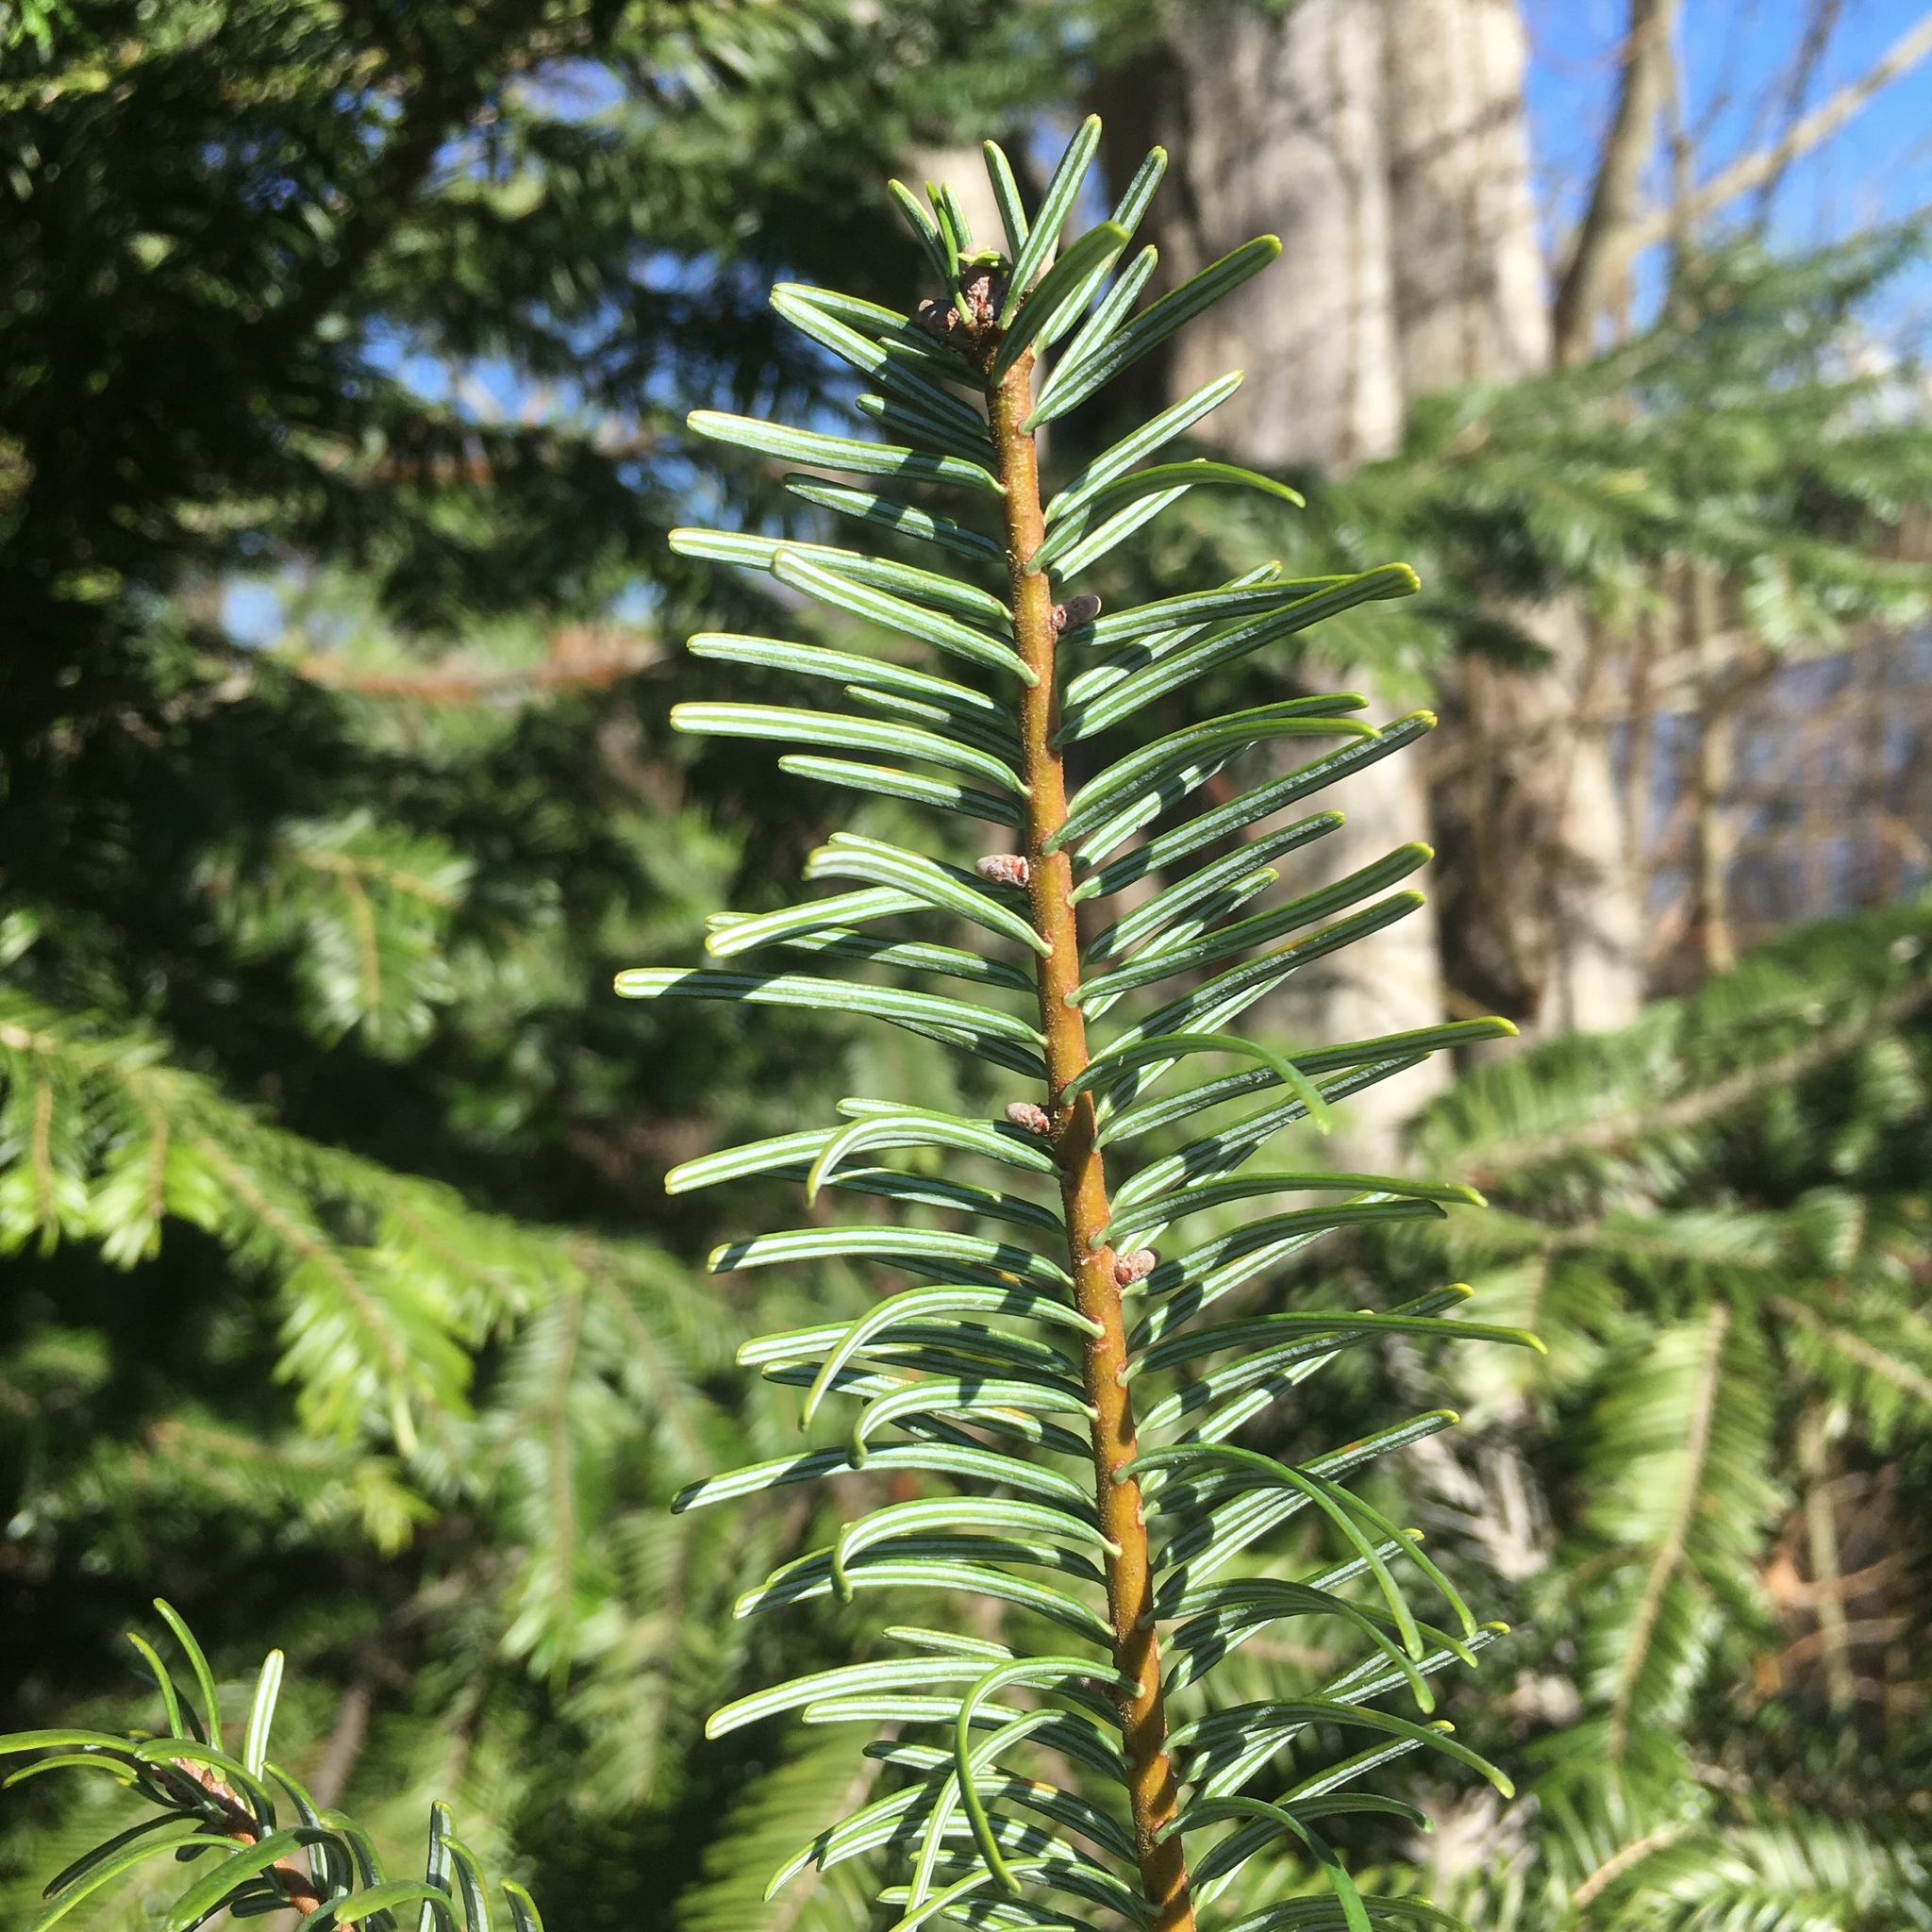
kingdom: Plantae
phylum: Tracheophyta
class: Pinopsida
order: Pinales
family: Pinaceae
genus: Abies
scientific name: Abies grandis
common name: Giant fir
